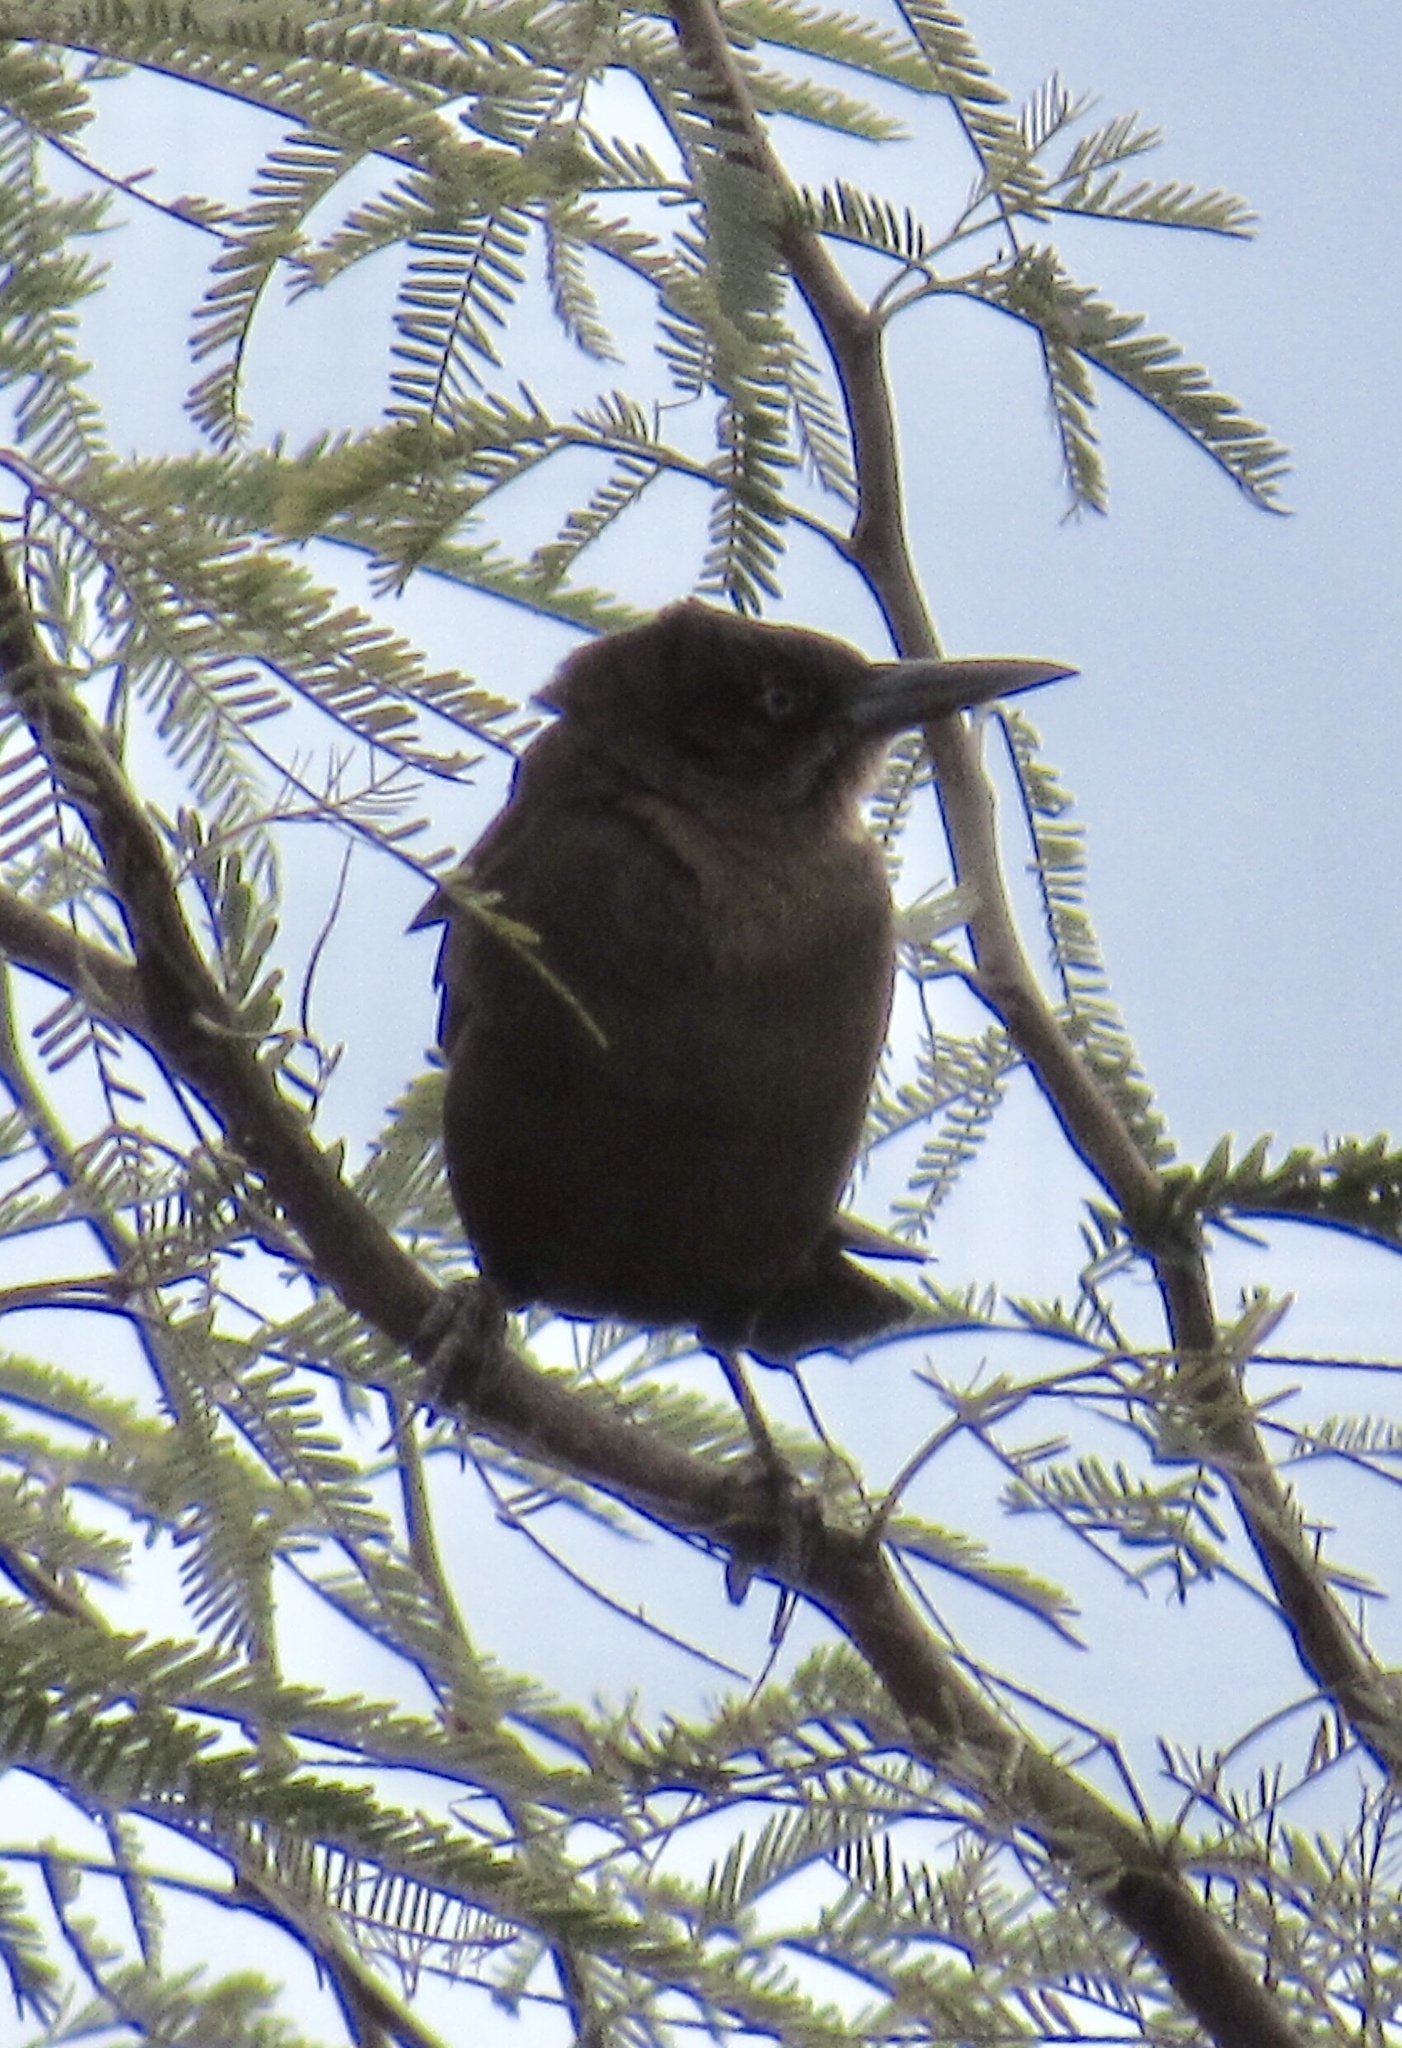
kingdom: Animalia
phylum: Chordata
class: Aves
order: Passeriformes
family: Icteridae
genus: Quiscalus
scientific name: Quiscalus mexicanus
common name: Great-tailed grackle
